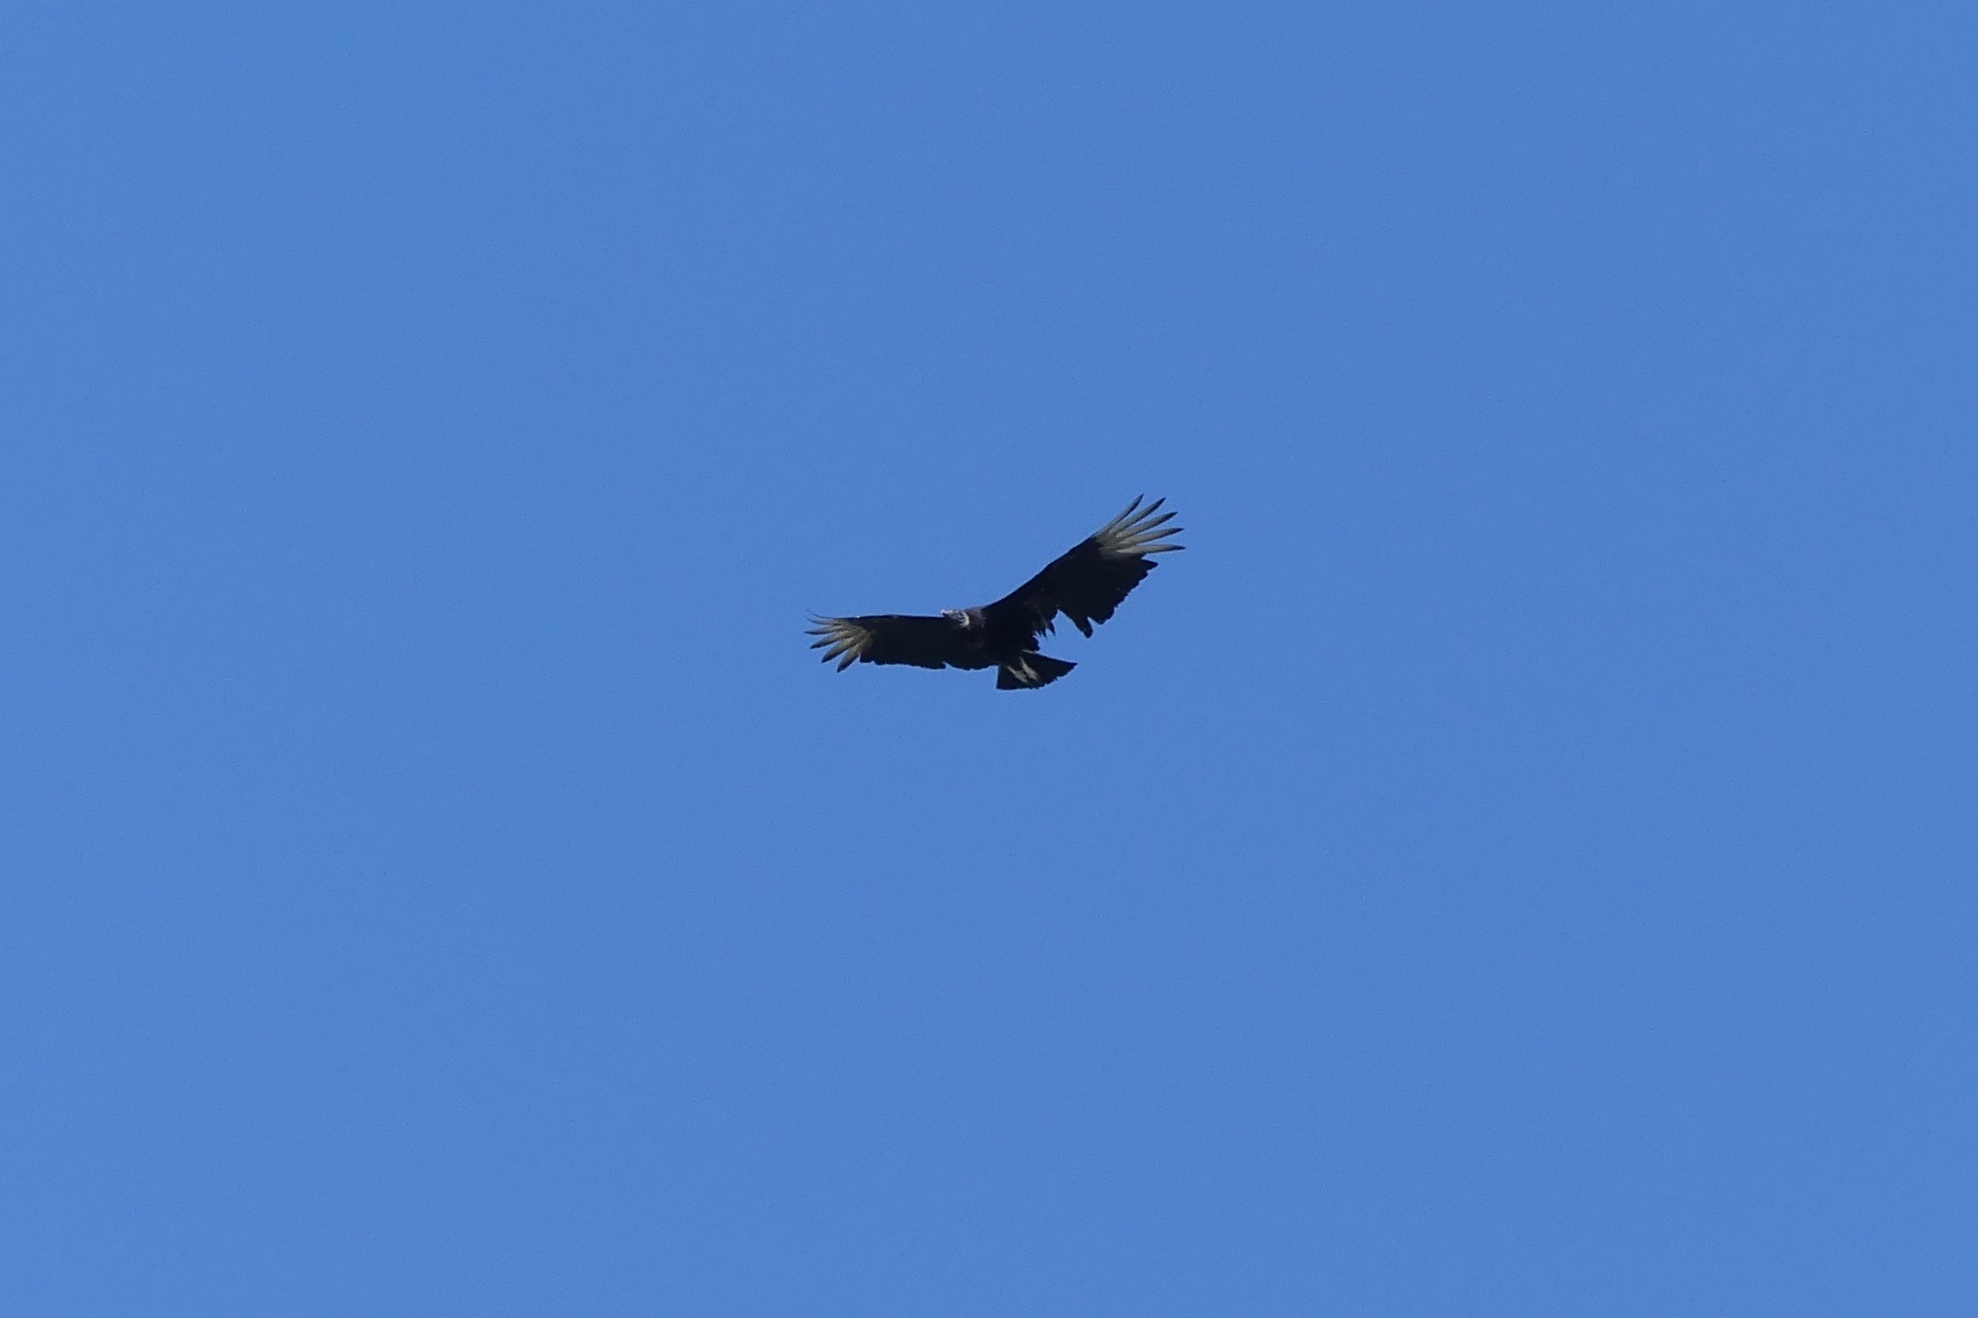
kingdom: Animalia
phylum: Chordata
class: Aves
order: Accipitriformes
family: Cathartidae
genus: Coragyps
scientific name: Coragyps atratus
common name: Black vulture
